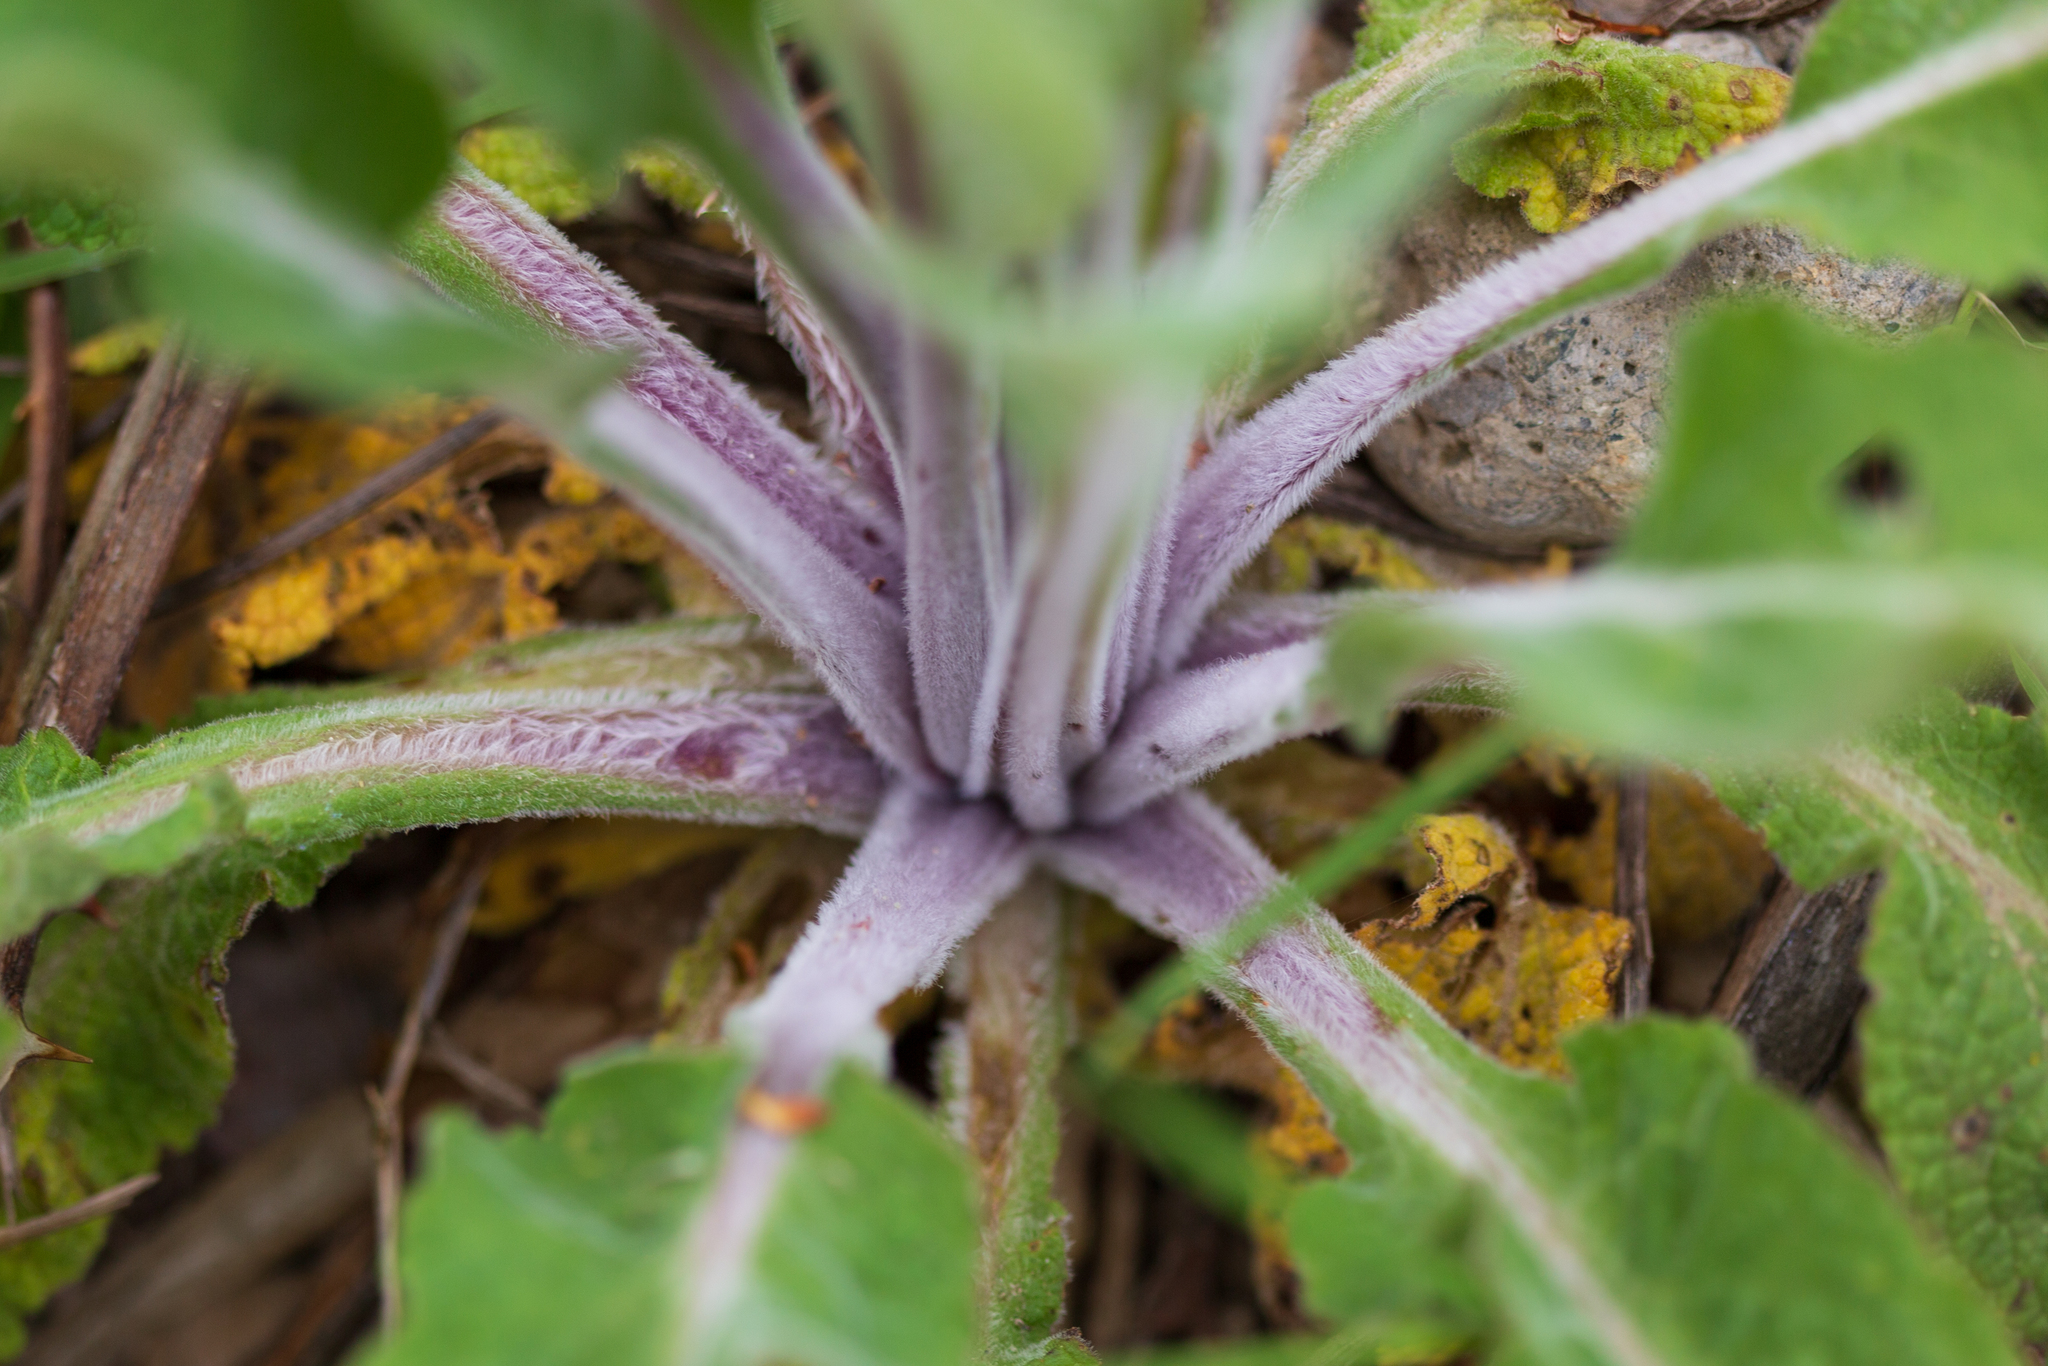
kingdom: Plantae
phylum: Tracheophyta
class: Magnoliopsida
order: Lamiales
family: Plantaginaceae
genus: Digitalis
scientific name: Digitalis purpurea
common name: Foxglove
